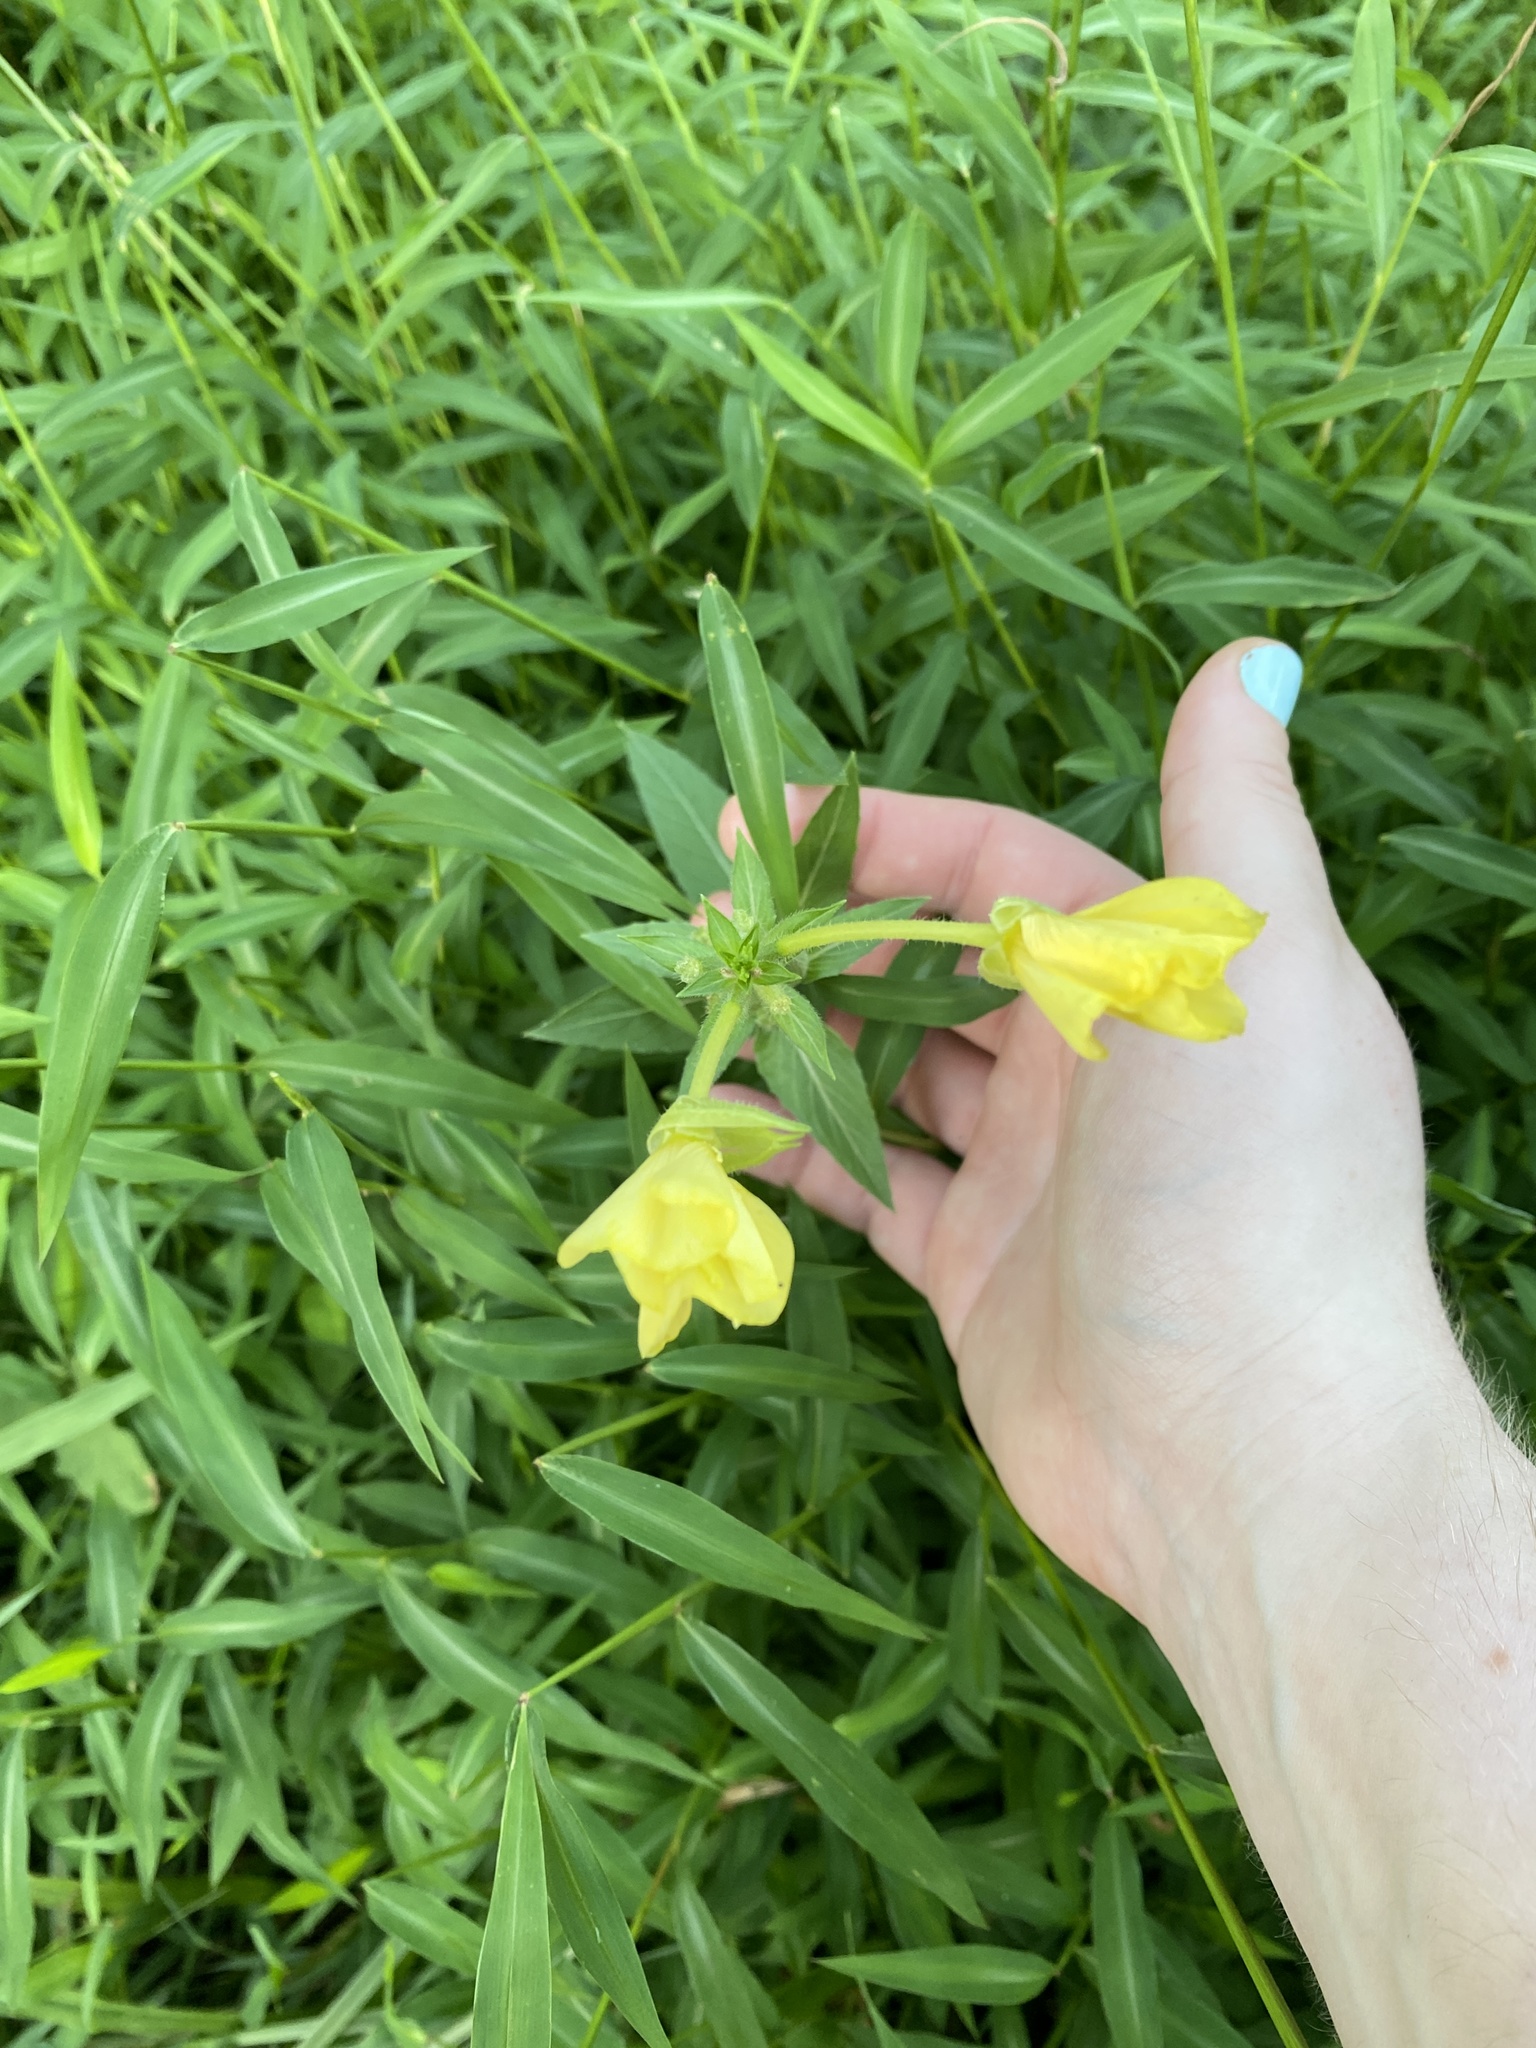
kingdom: Plantae
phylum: Tracheophyta
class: Magnoliopsida
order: Myrtales
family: Onagraceae
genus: Oenothera
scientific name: Oenothera biennis
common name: Common evening-primrose
